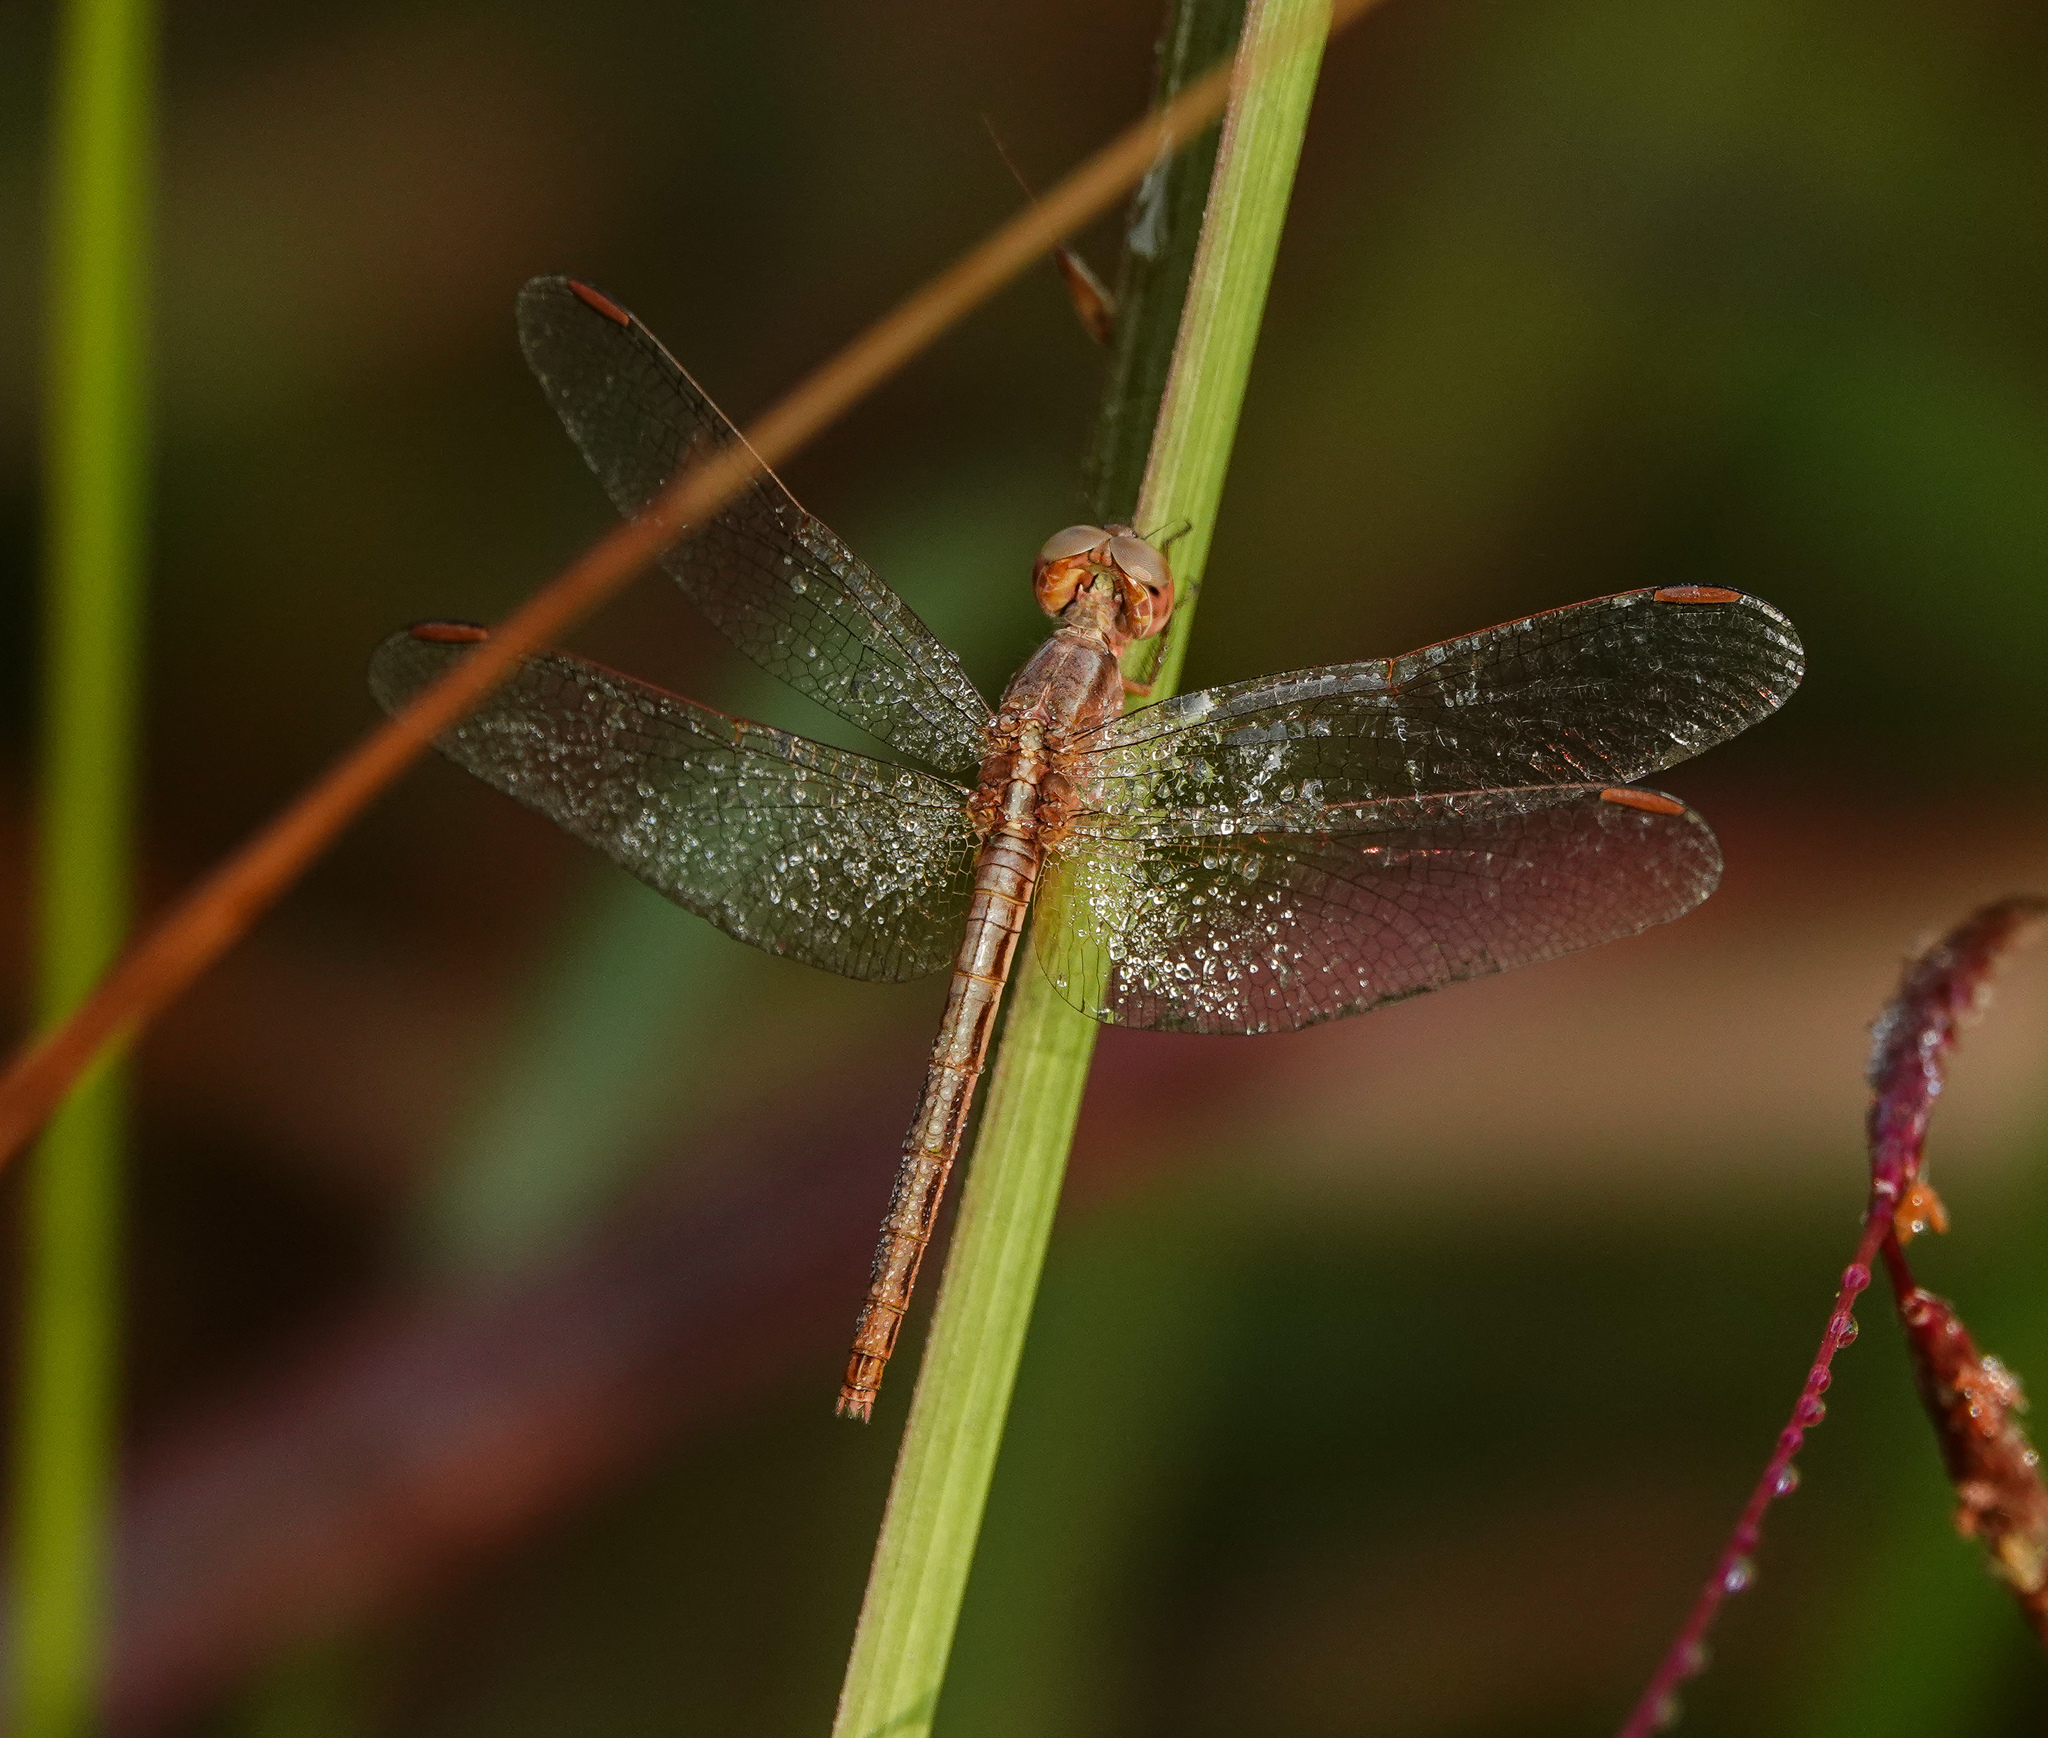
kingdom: Animalia
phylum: Arthropoda
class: Insecta
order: Odonata
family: Libellulidae
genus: Neurothemis
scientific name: Neurothemis intermedia
